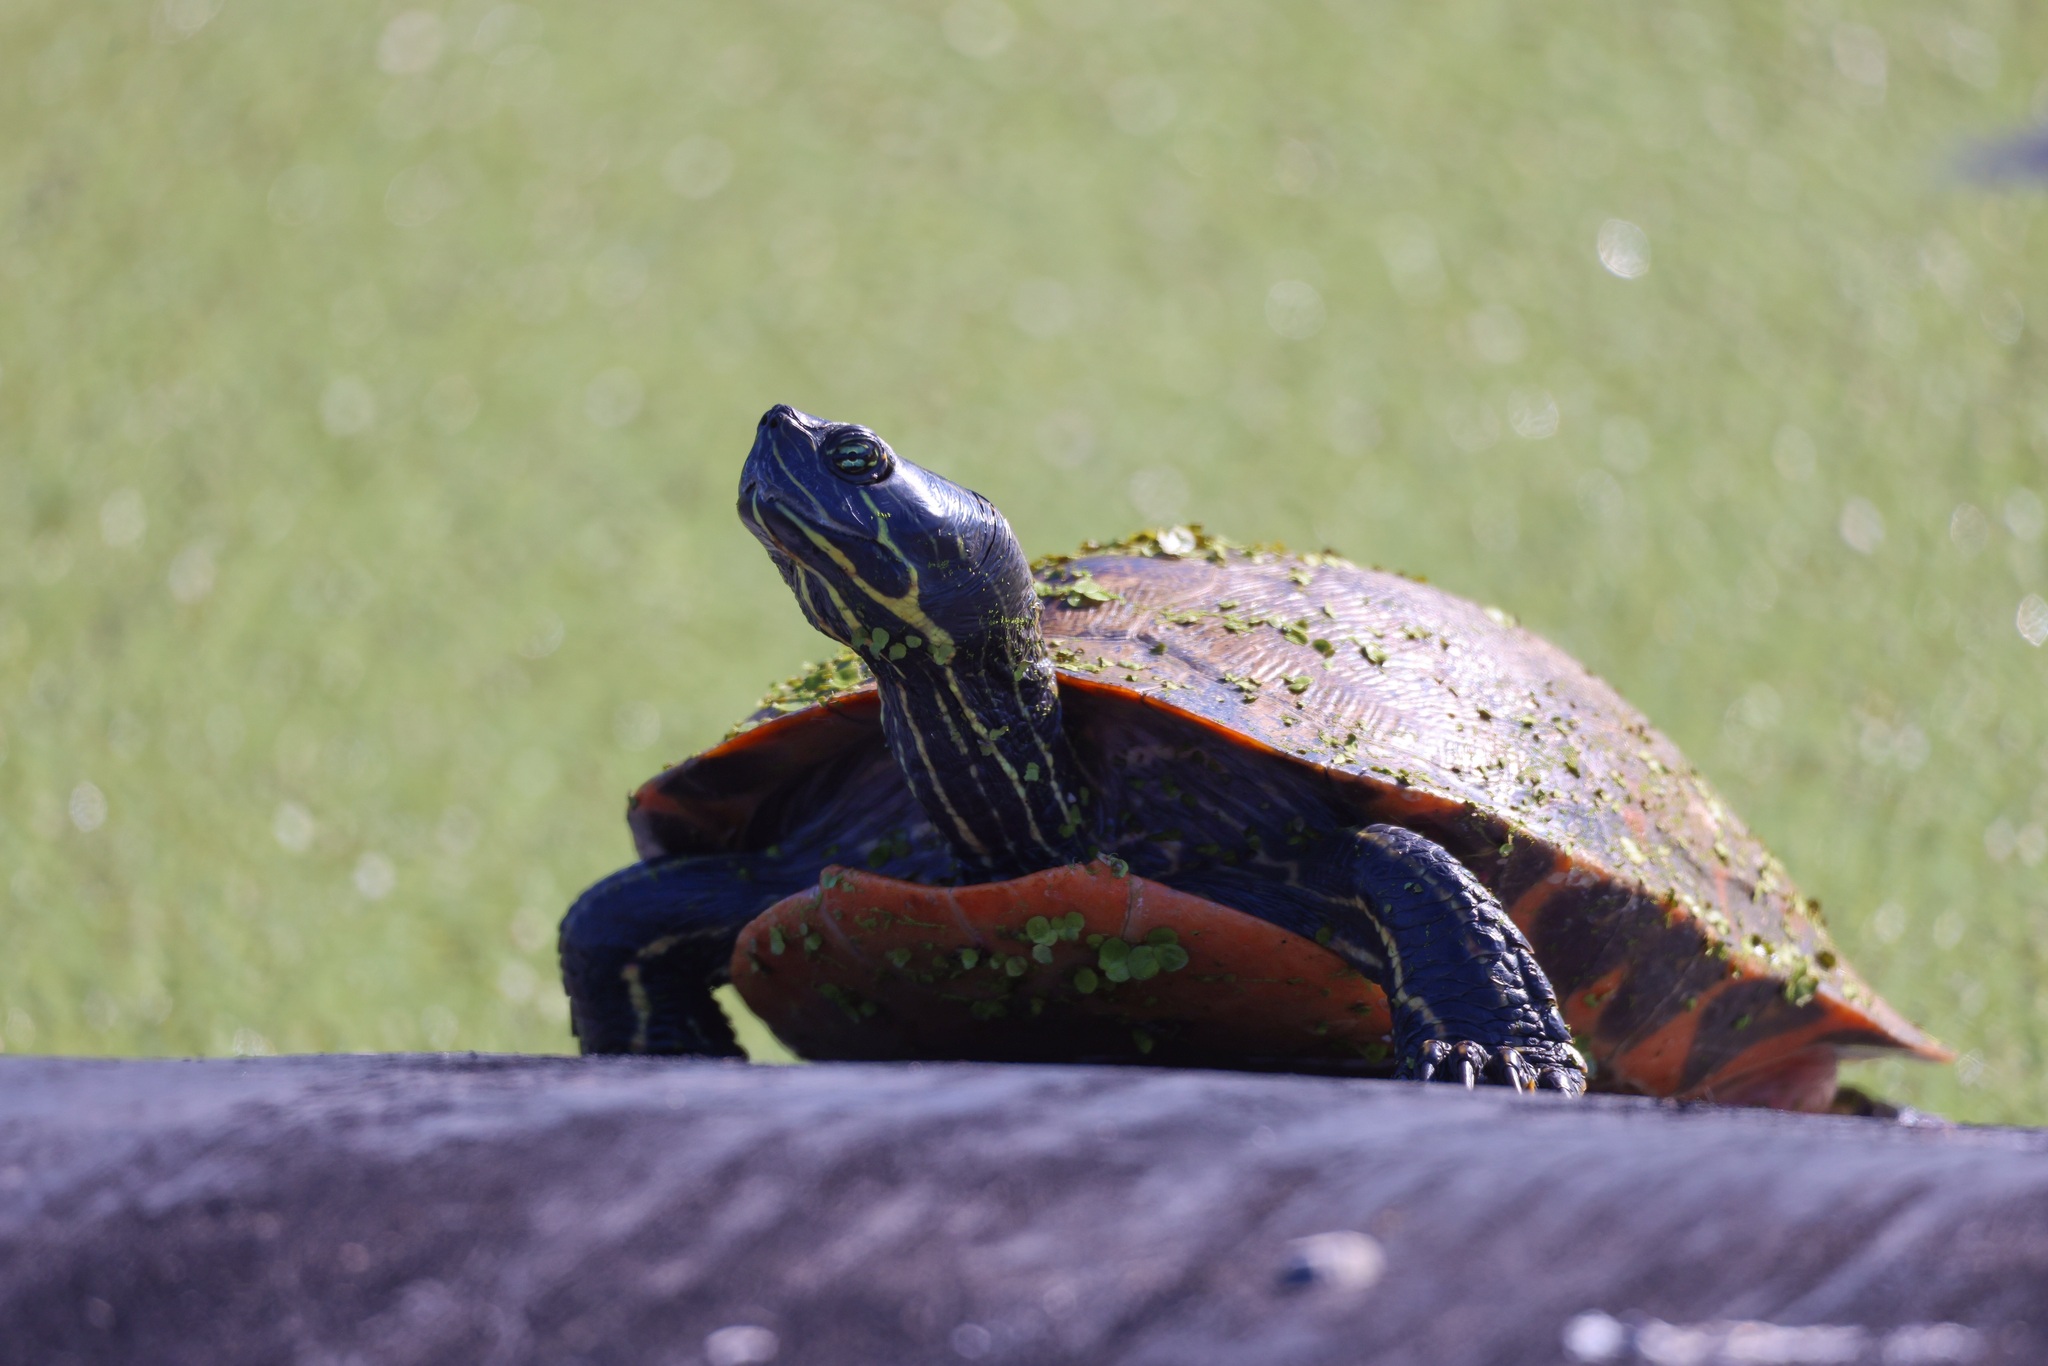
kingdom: Animalia
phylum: Chordata
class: Testudines
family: Emydidae
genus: Pseudemys
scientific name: Pseudemys rubriventris
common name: American red-bellied turtle
